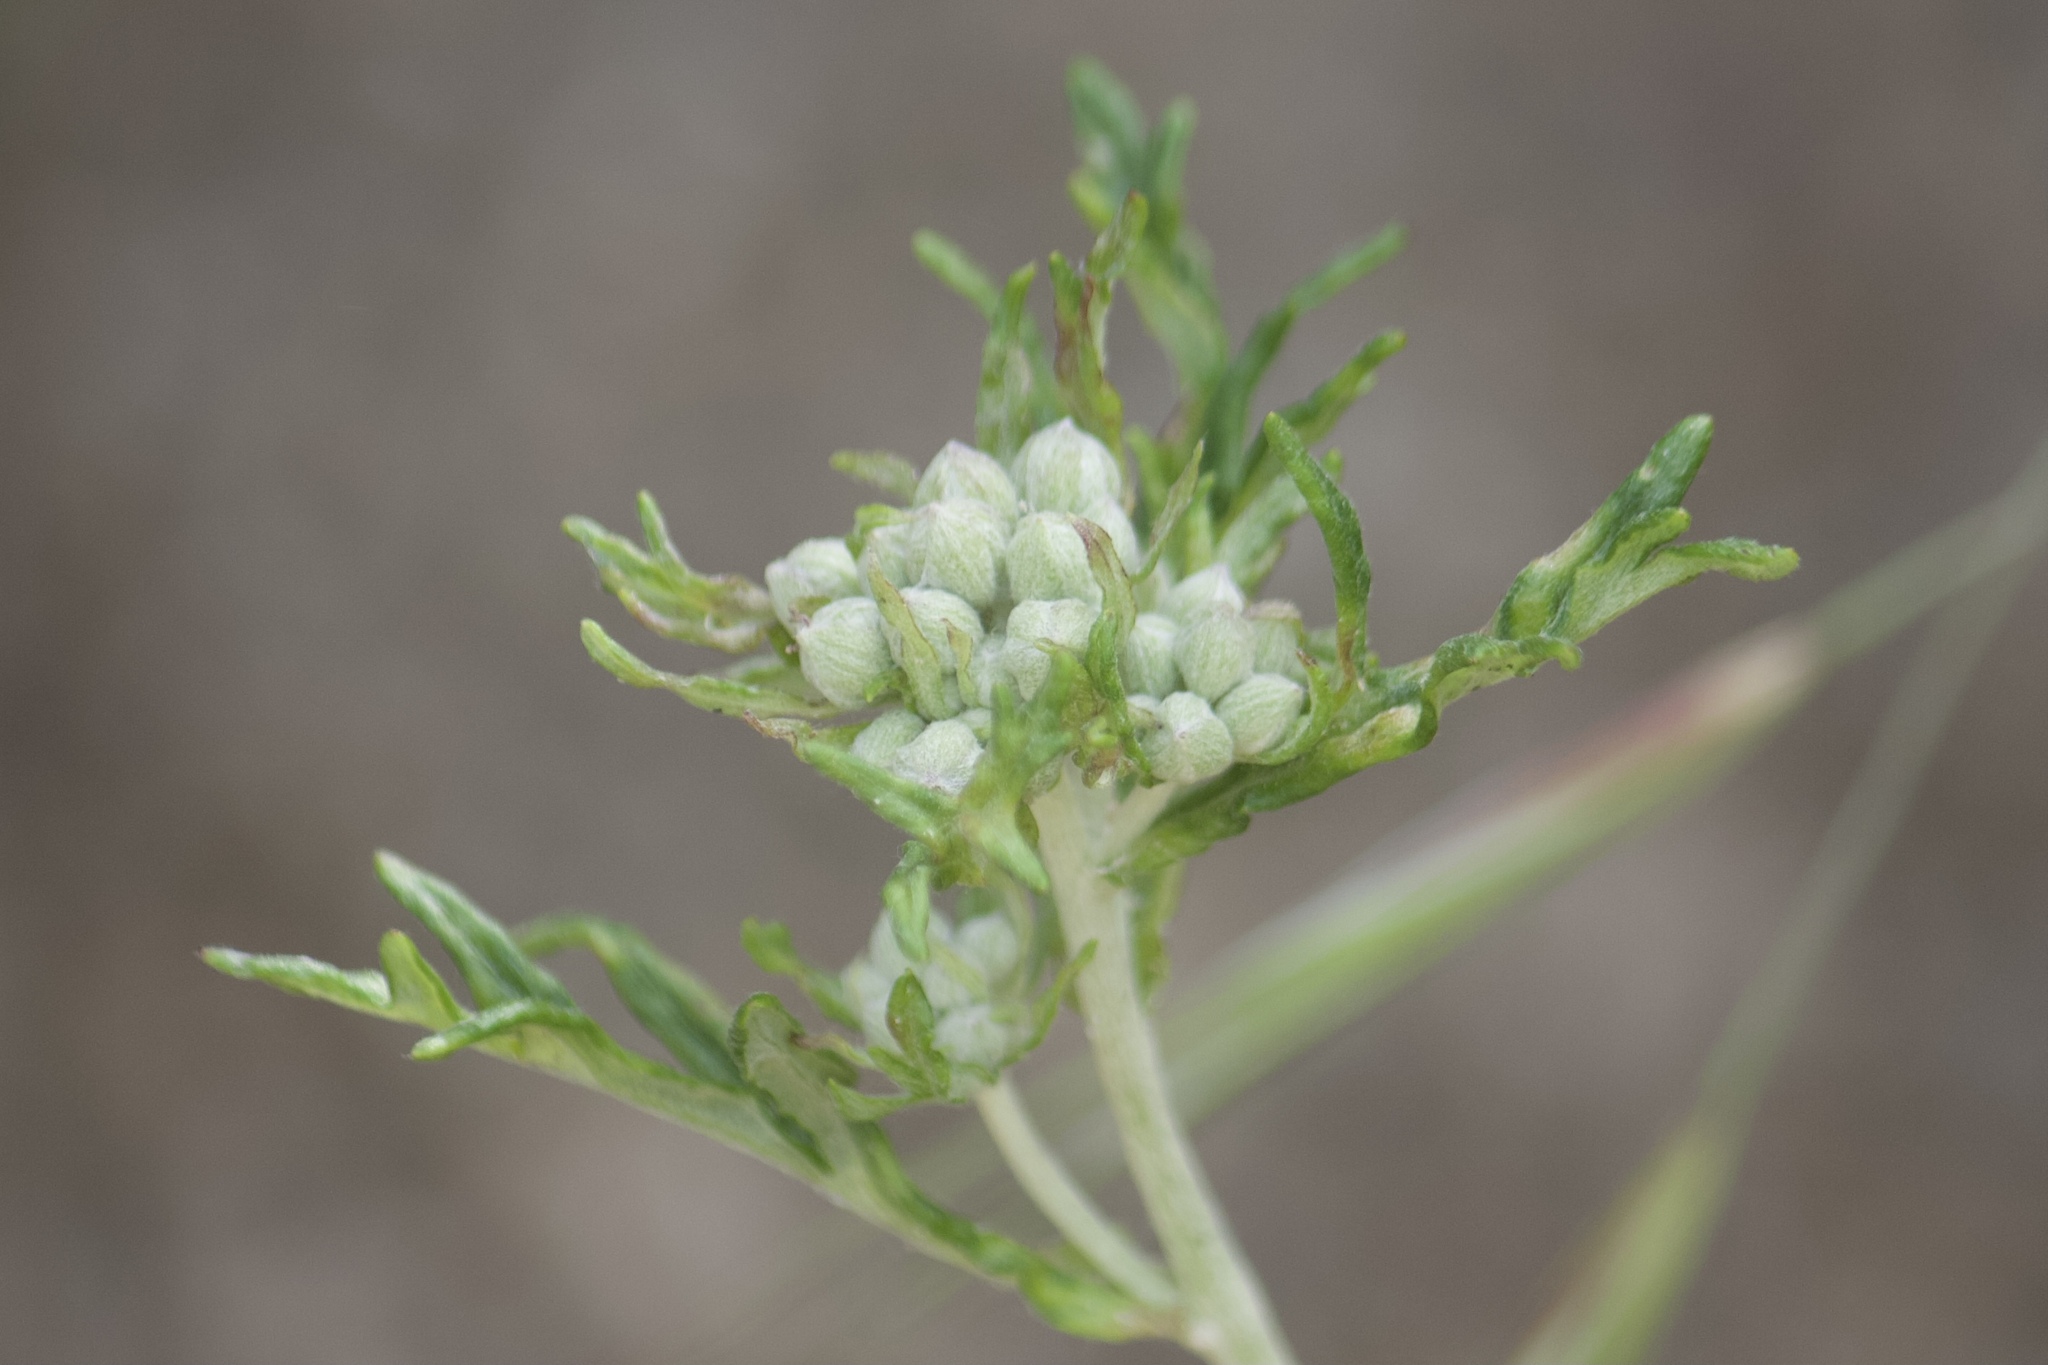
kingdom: Plantae
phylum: Tracheophyta
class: Magnoliopsida
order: Asterales
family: Asteraceae
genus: Eriophyllum
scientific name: Eriophyllum confertiflorum
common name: Golden-yarrow
